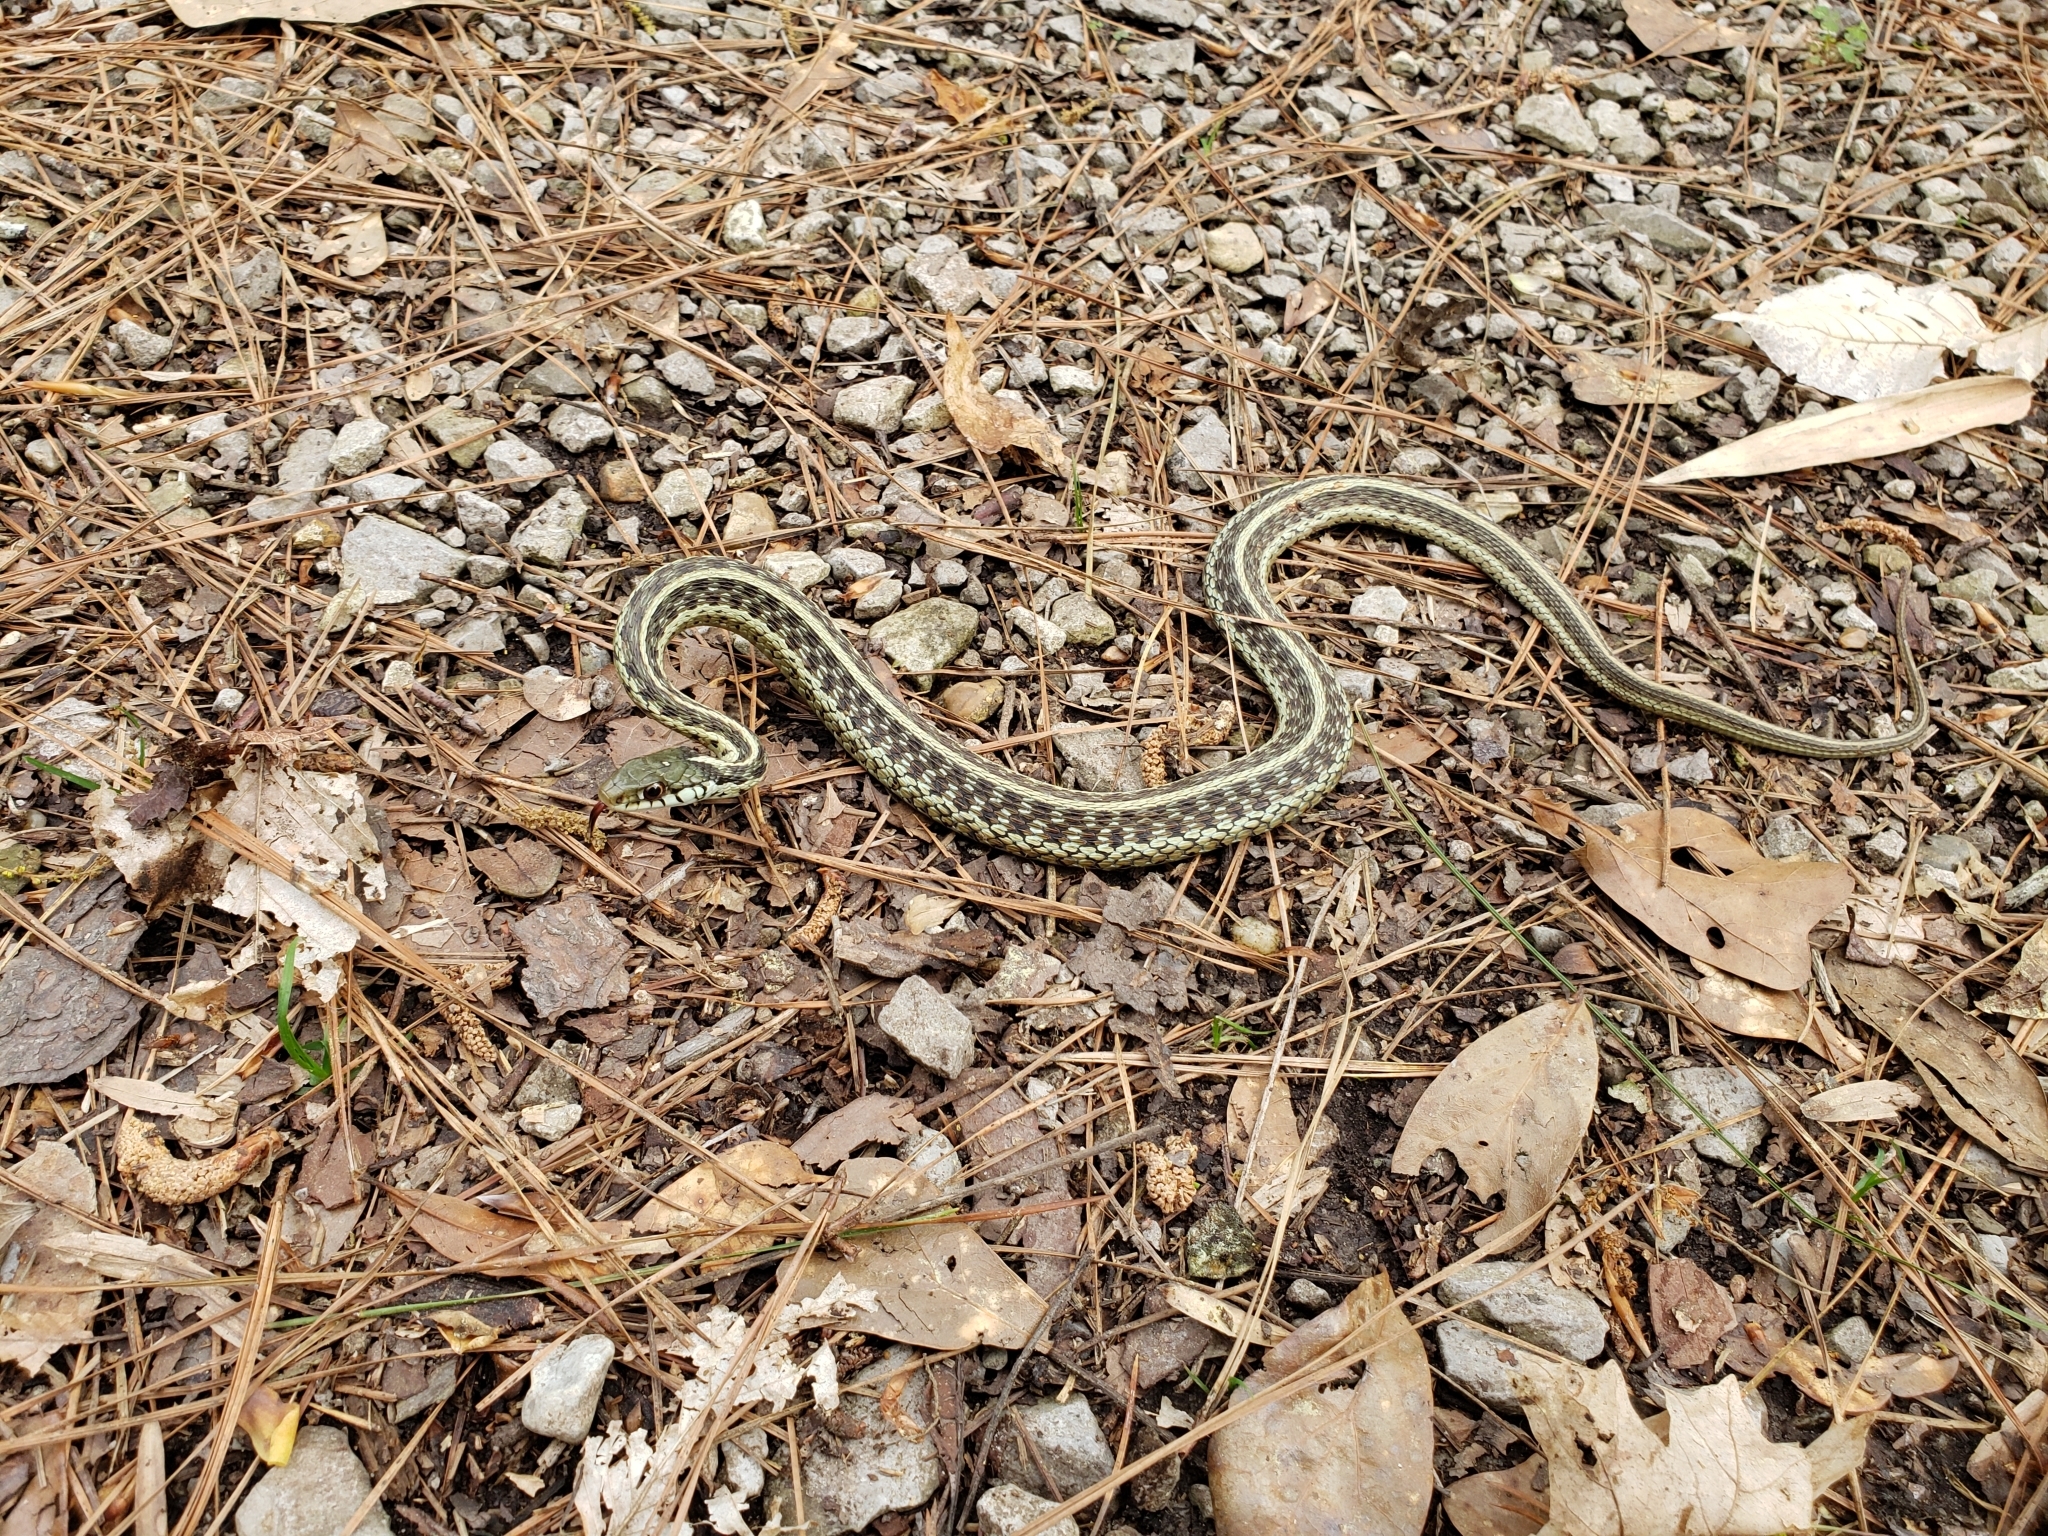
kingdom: Animalia
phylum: Chordata
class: Squamata
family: Colubridae
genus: Thamnophis
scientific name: Thamnophis sirtalis
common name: Common garter snake
